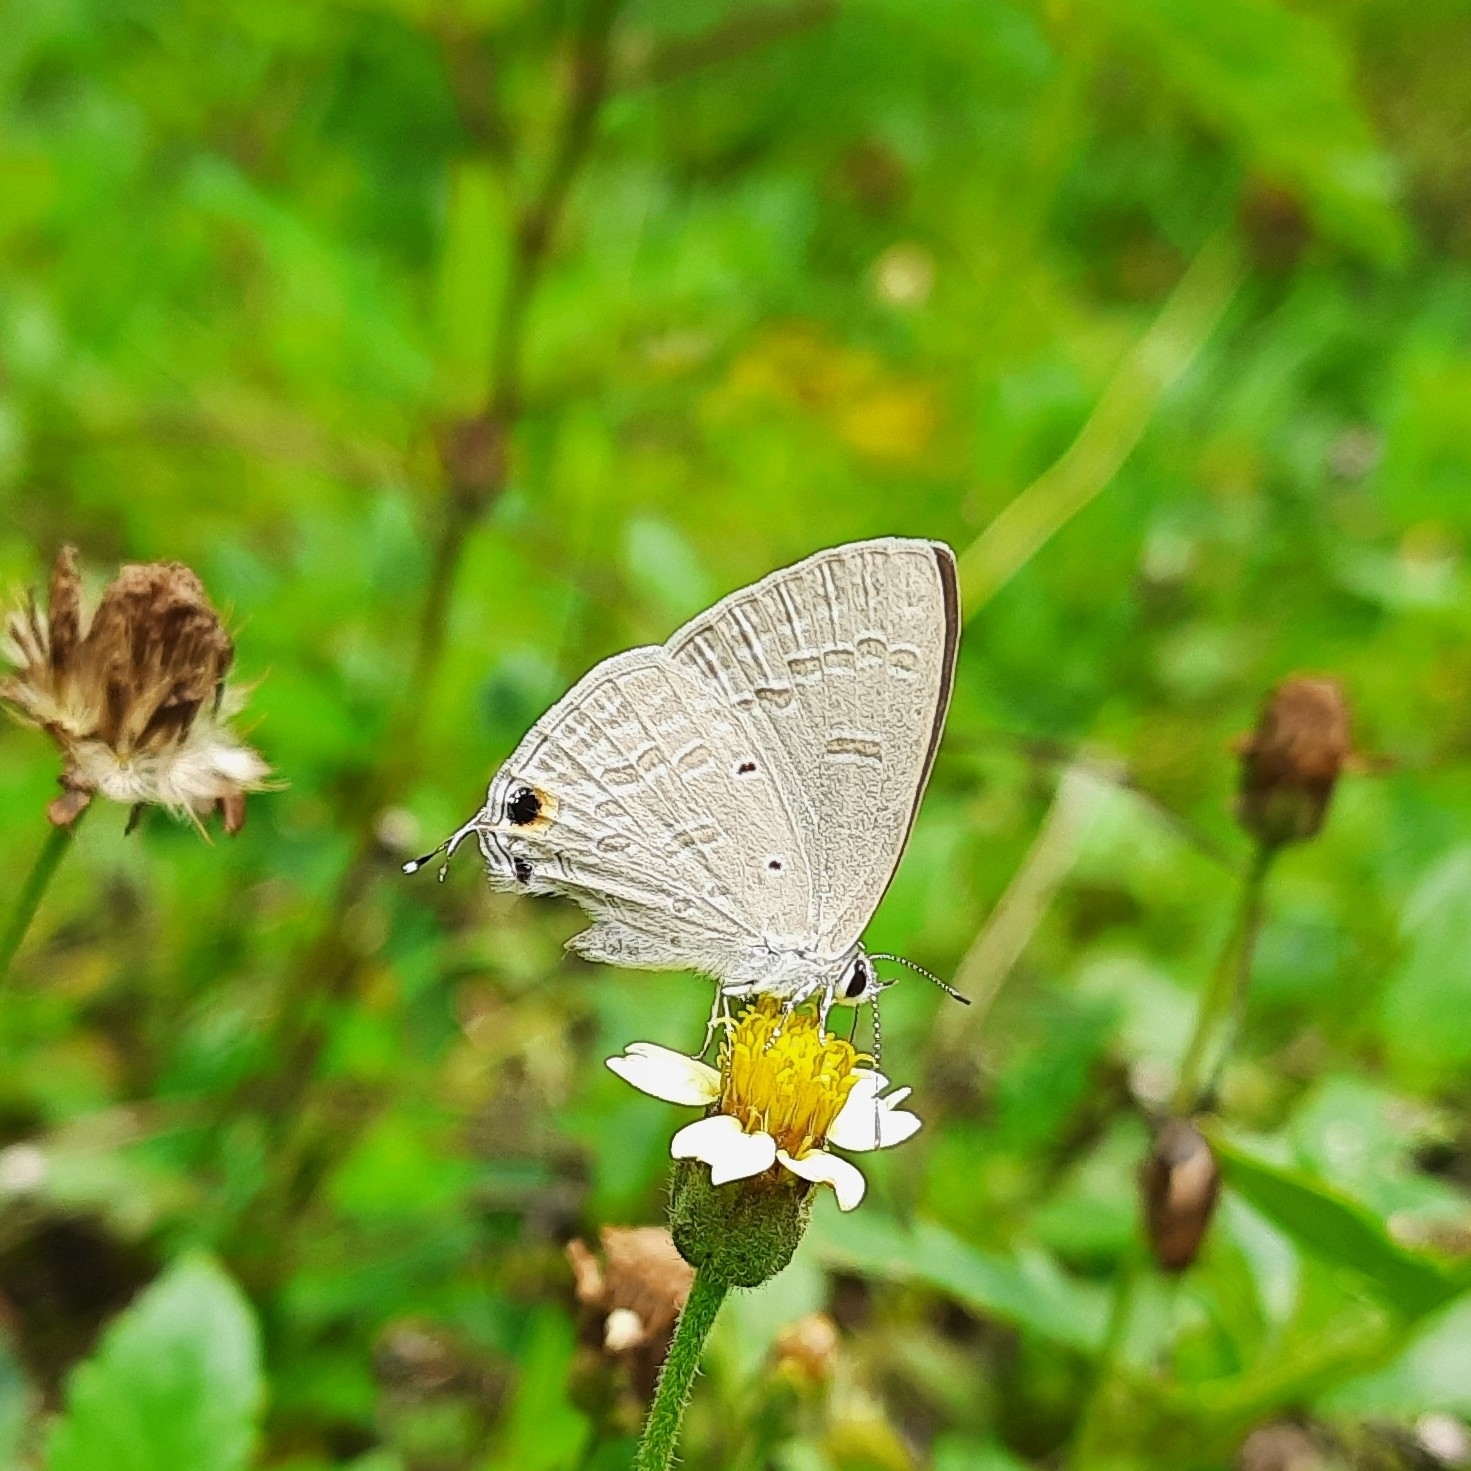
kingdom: Animalia
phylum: Arthropoda
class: Insecta
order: Lepidoptera
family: Lycaenidae
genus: Catochrysops
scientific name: Catochrysops strabo
